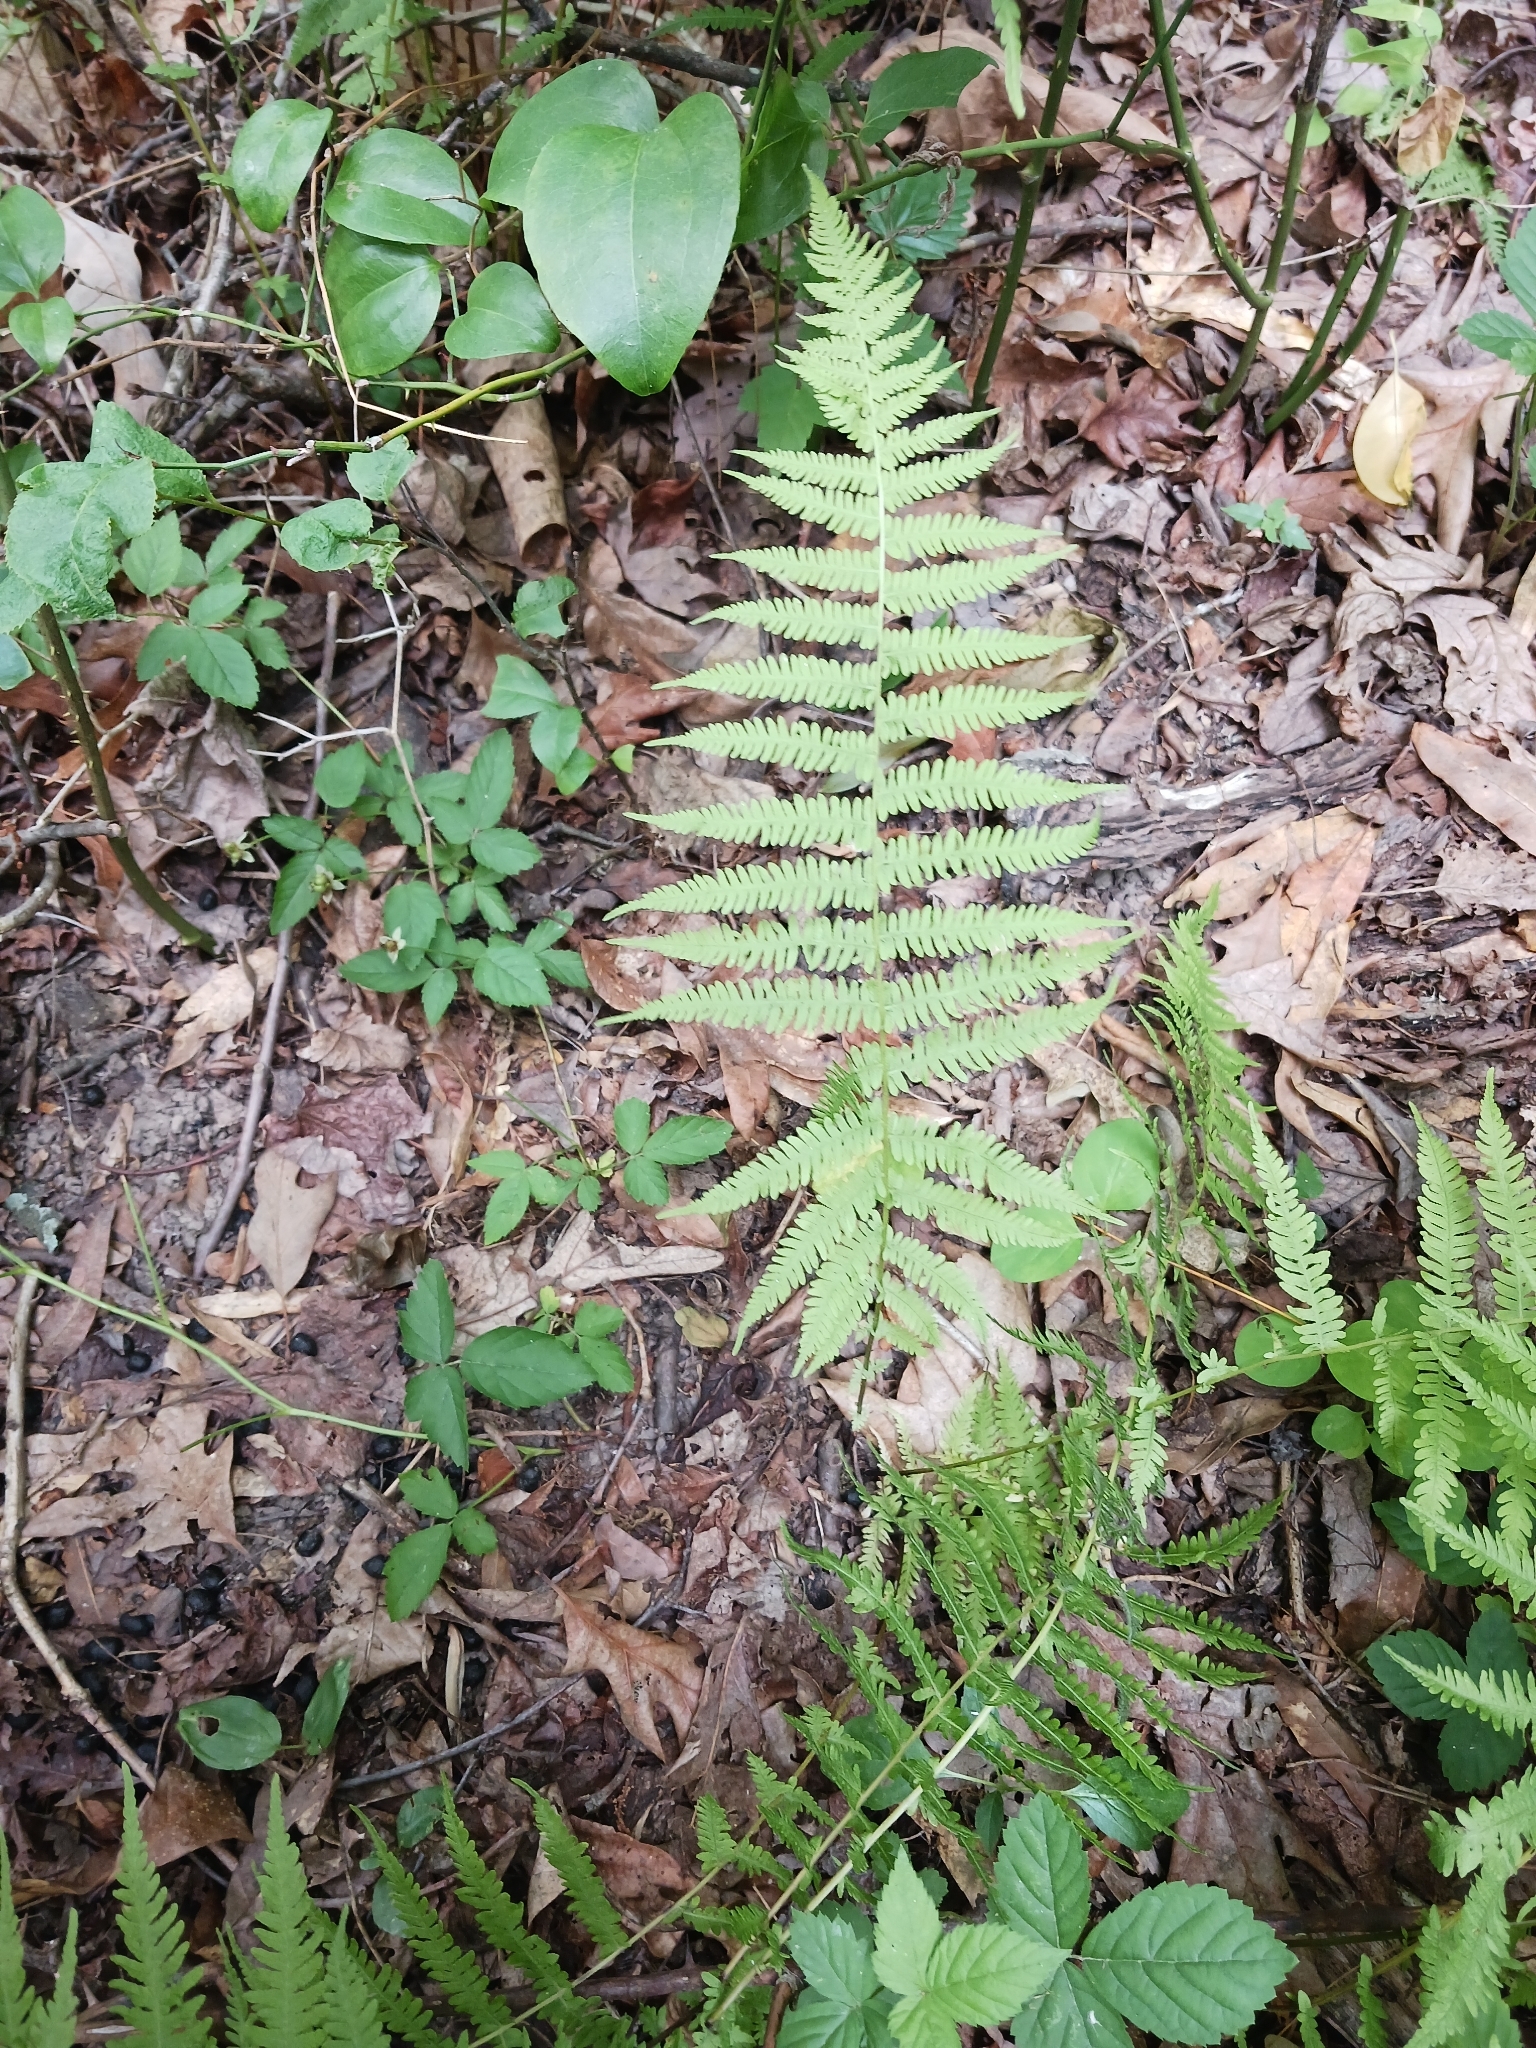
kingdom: Plantae
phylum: Tracheophyta
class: Polypodiopsida
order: Polypodiales
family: Thelypteridaceae
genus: Amauropelta
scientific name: Amauropelta noveboracensis
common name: New york fern
